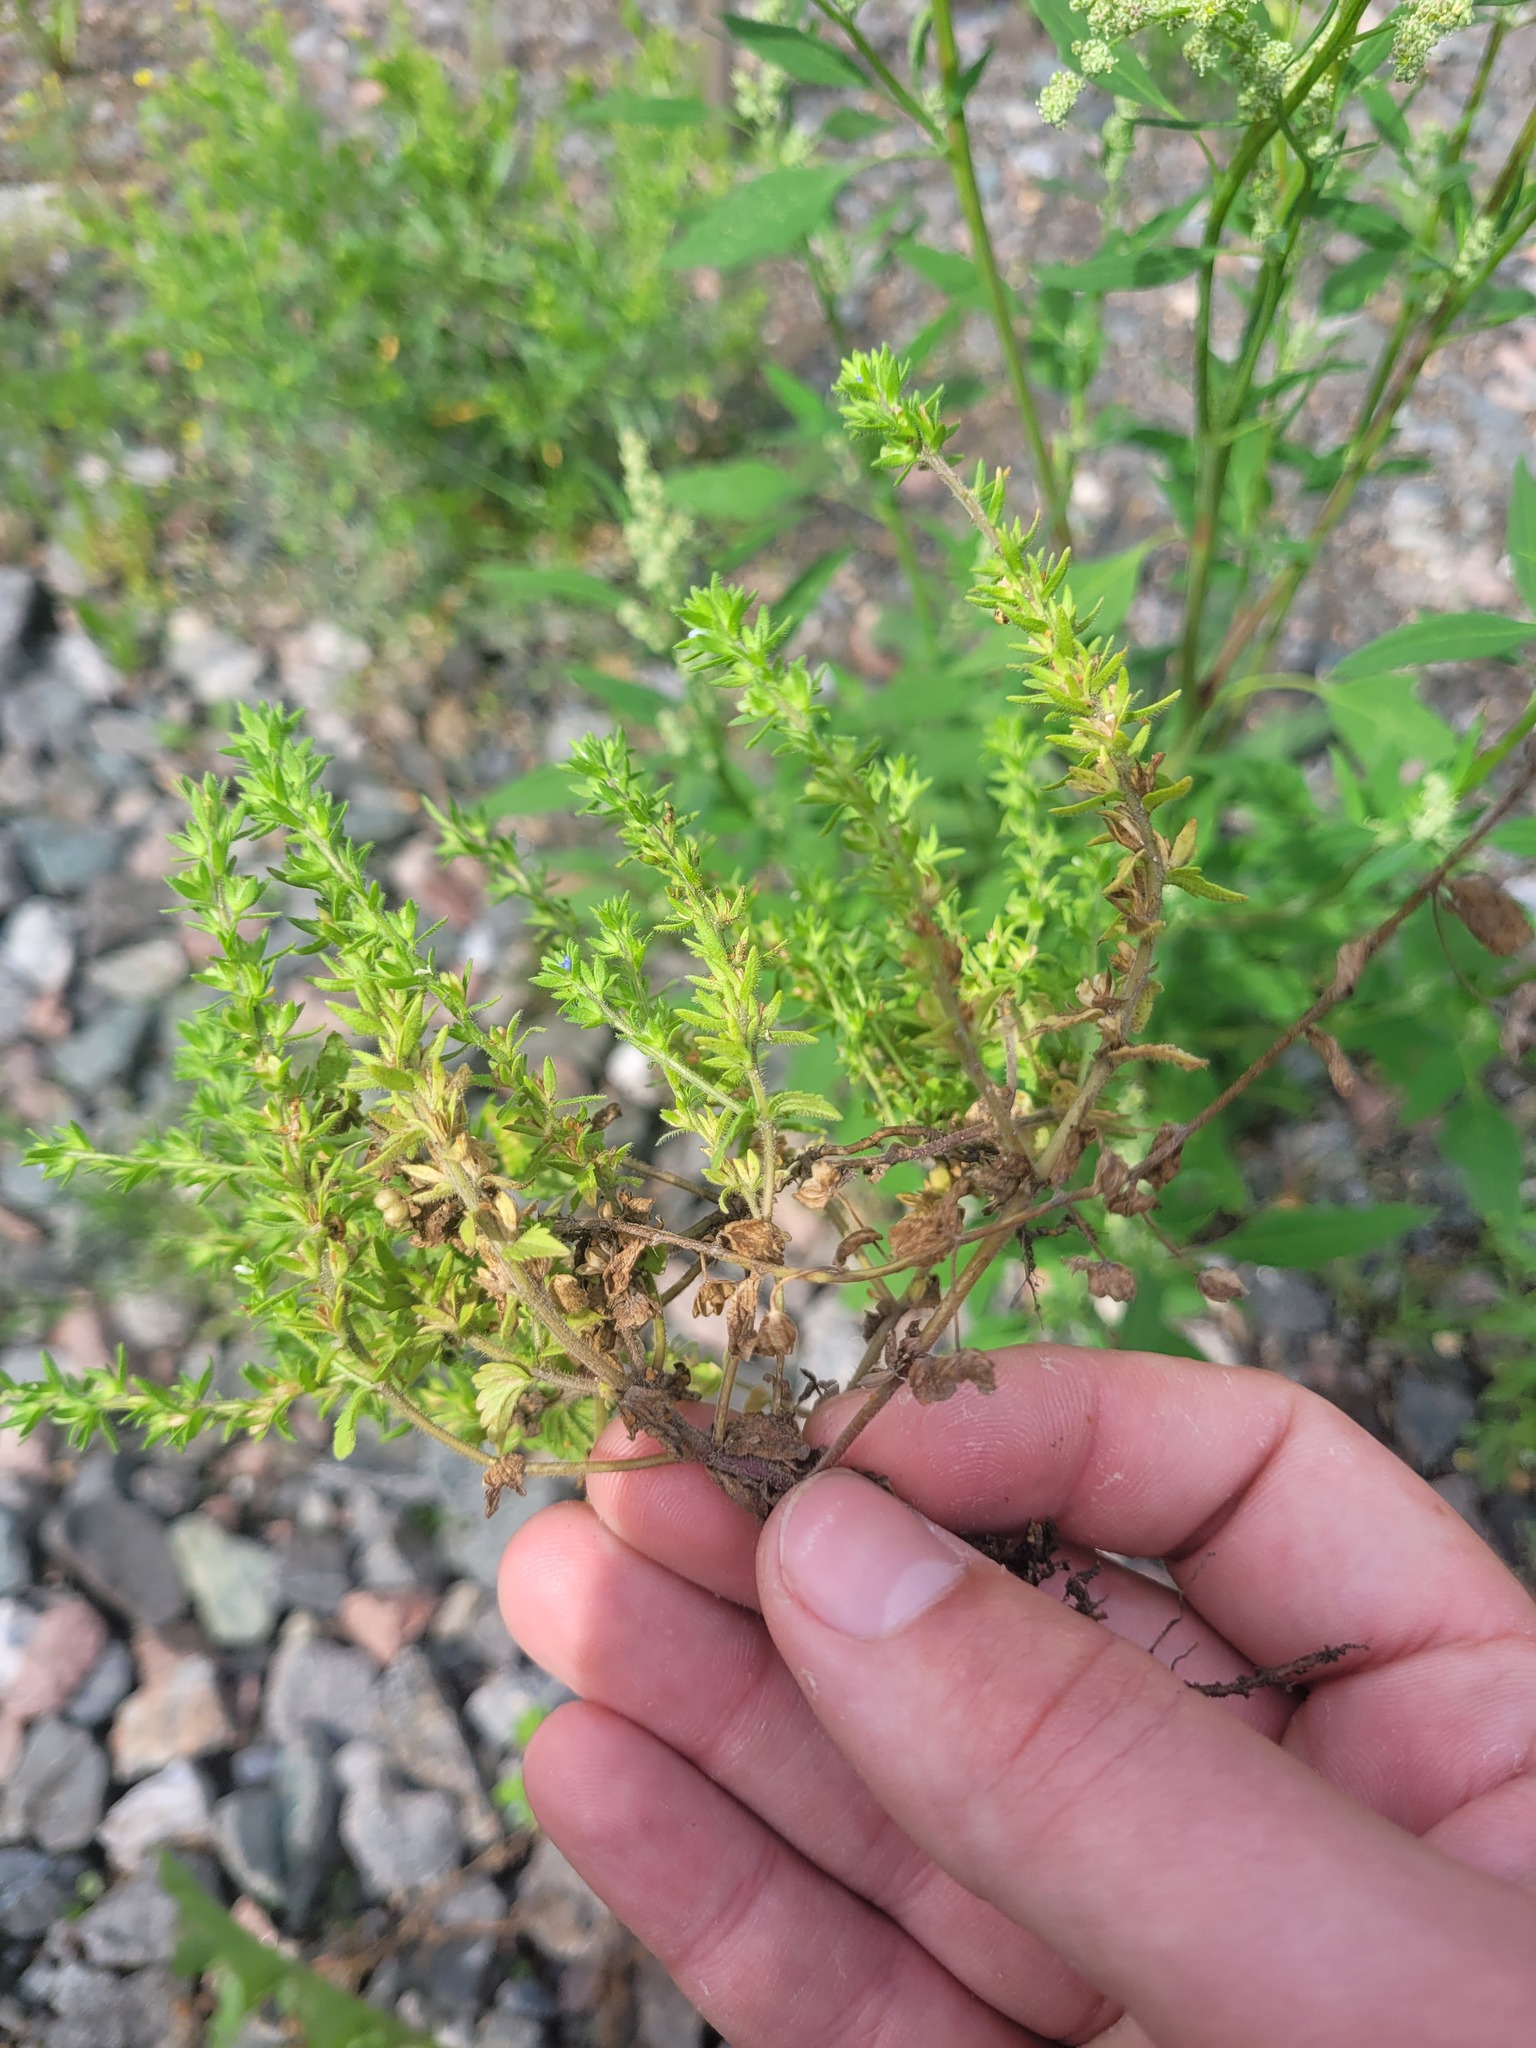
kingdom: Plantae
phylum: Tracheophyta
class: Magnoliopsida
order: Lamiales
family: Plantaginaceae
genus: Veronica
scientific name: Veronica arvensis
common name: Corn speedwell
